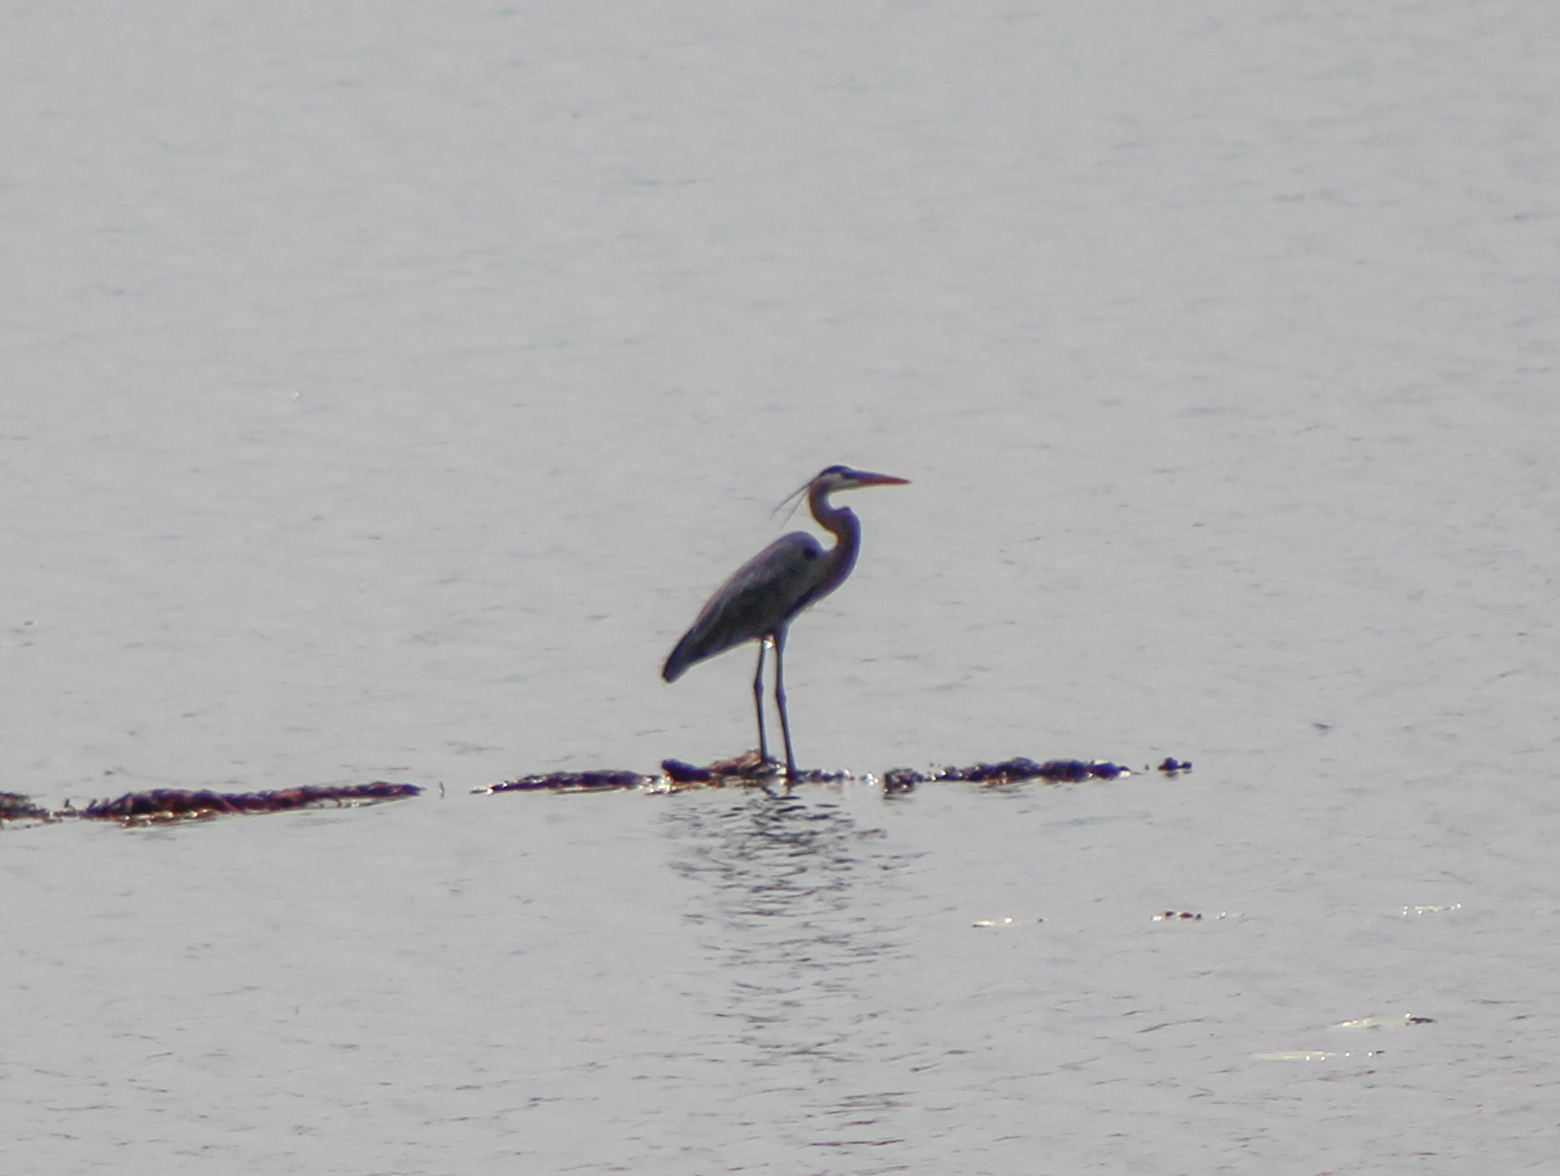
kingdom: Animalia
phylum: Chordata
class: Aves
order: Pelecaniformes
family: Ardeidae
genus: Ardea
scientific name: Ardea herodias
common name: Great blue heron
